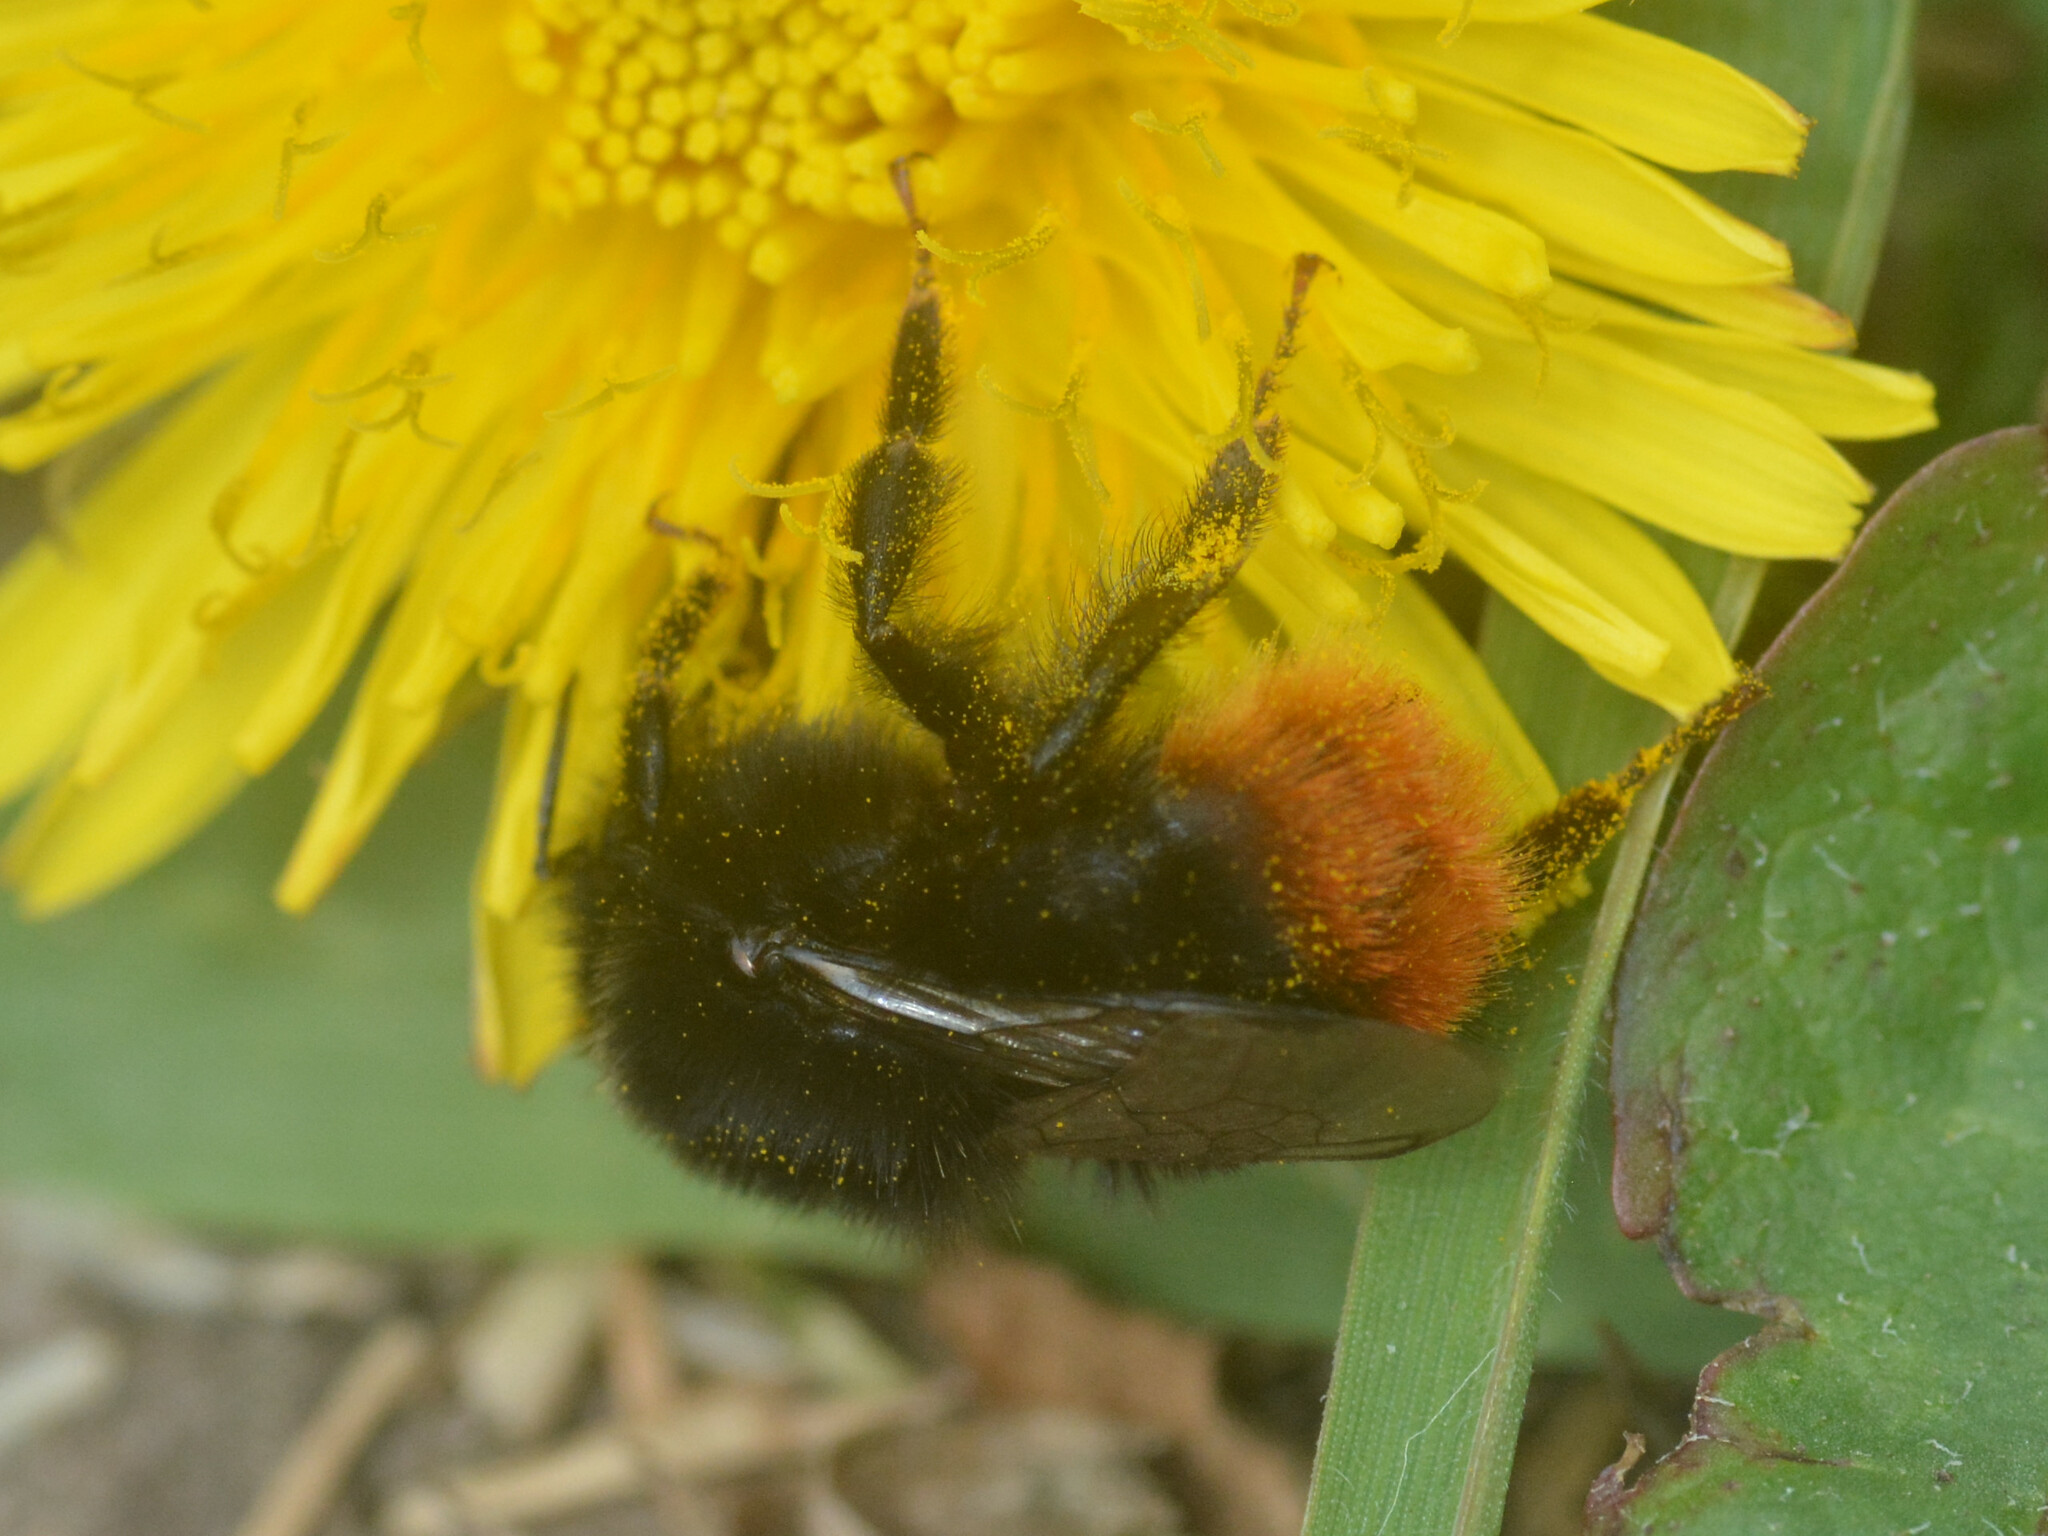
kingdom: Animalia
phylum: Arthropoda
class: Insecta
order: Hymenoptera
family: Apidae
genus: Bombus
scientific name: Bombus lapidarius
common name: Large red-tailed humble-bee
